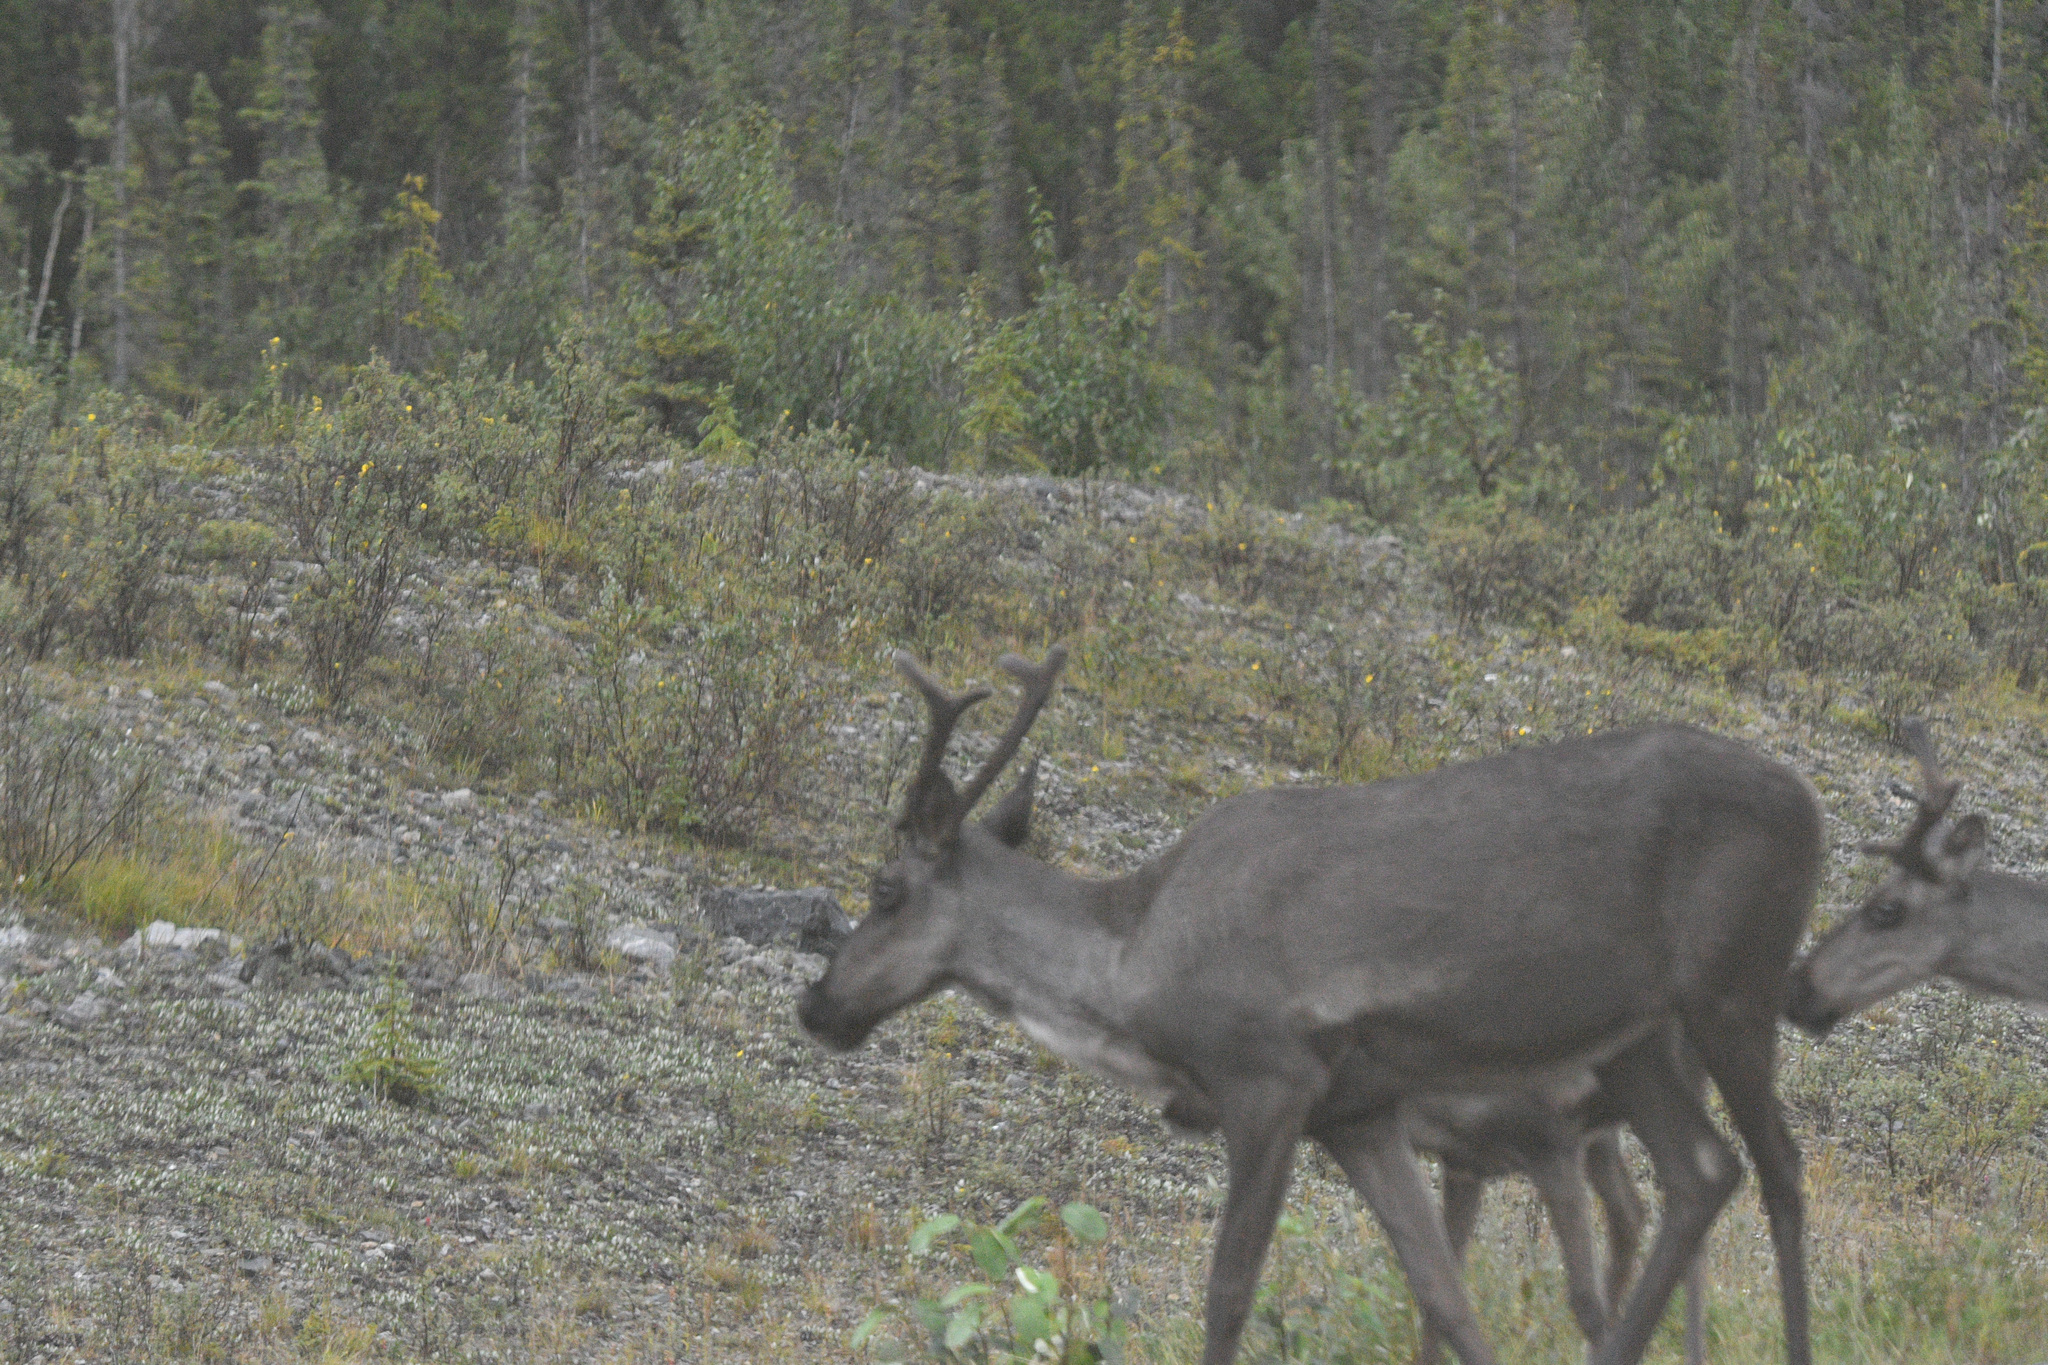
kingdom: Animalia
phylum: Chordata
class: Mammalia
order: Artiodactyla
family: Cervidae
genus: Rangifer
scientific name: Rangifer tarandus
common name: Reindeer
